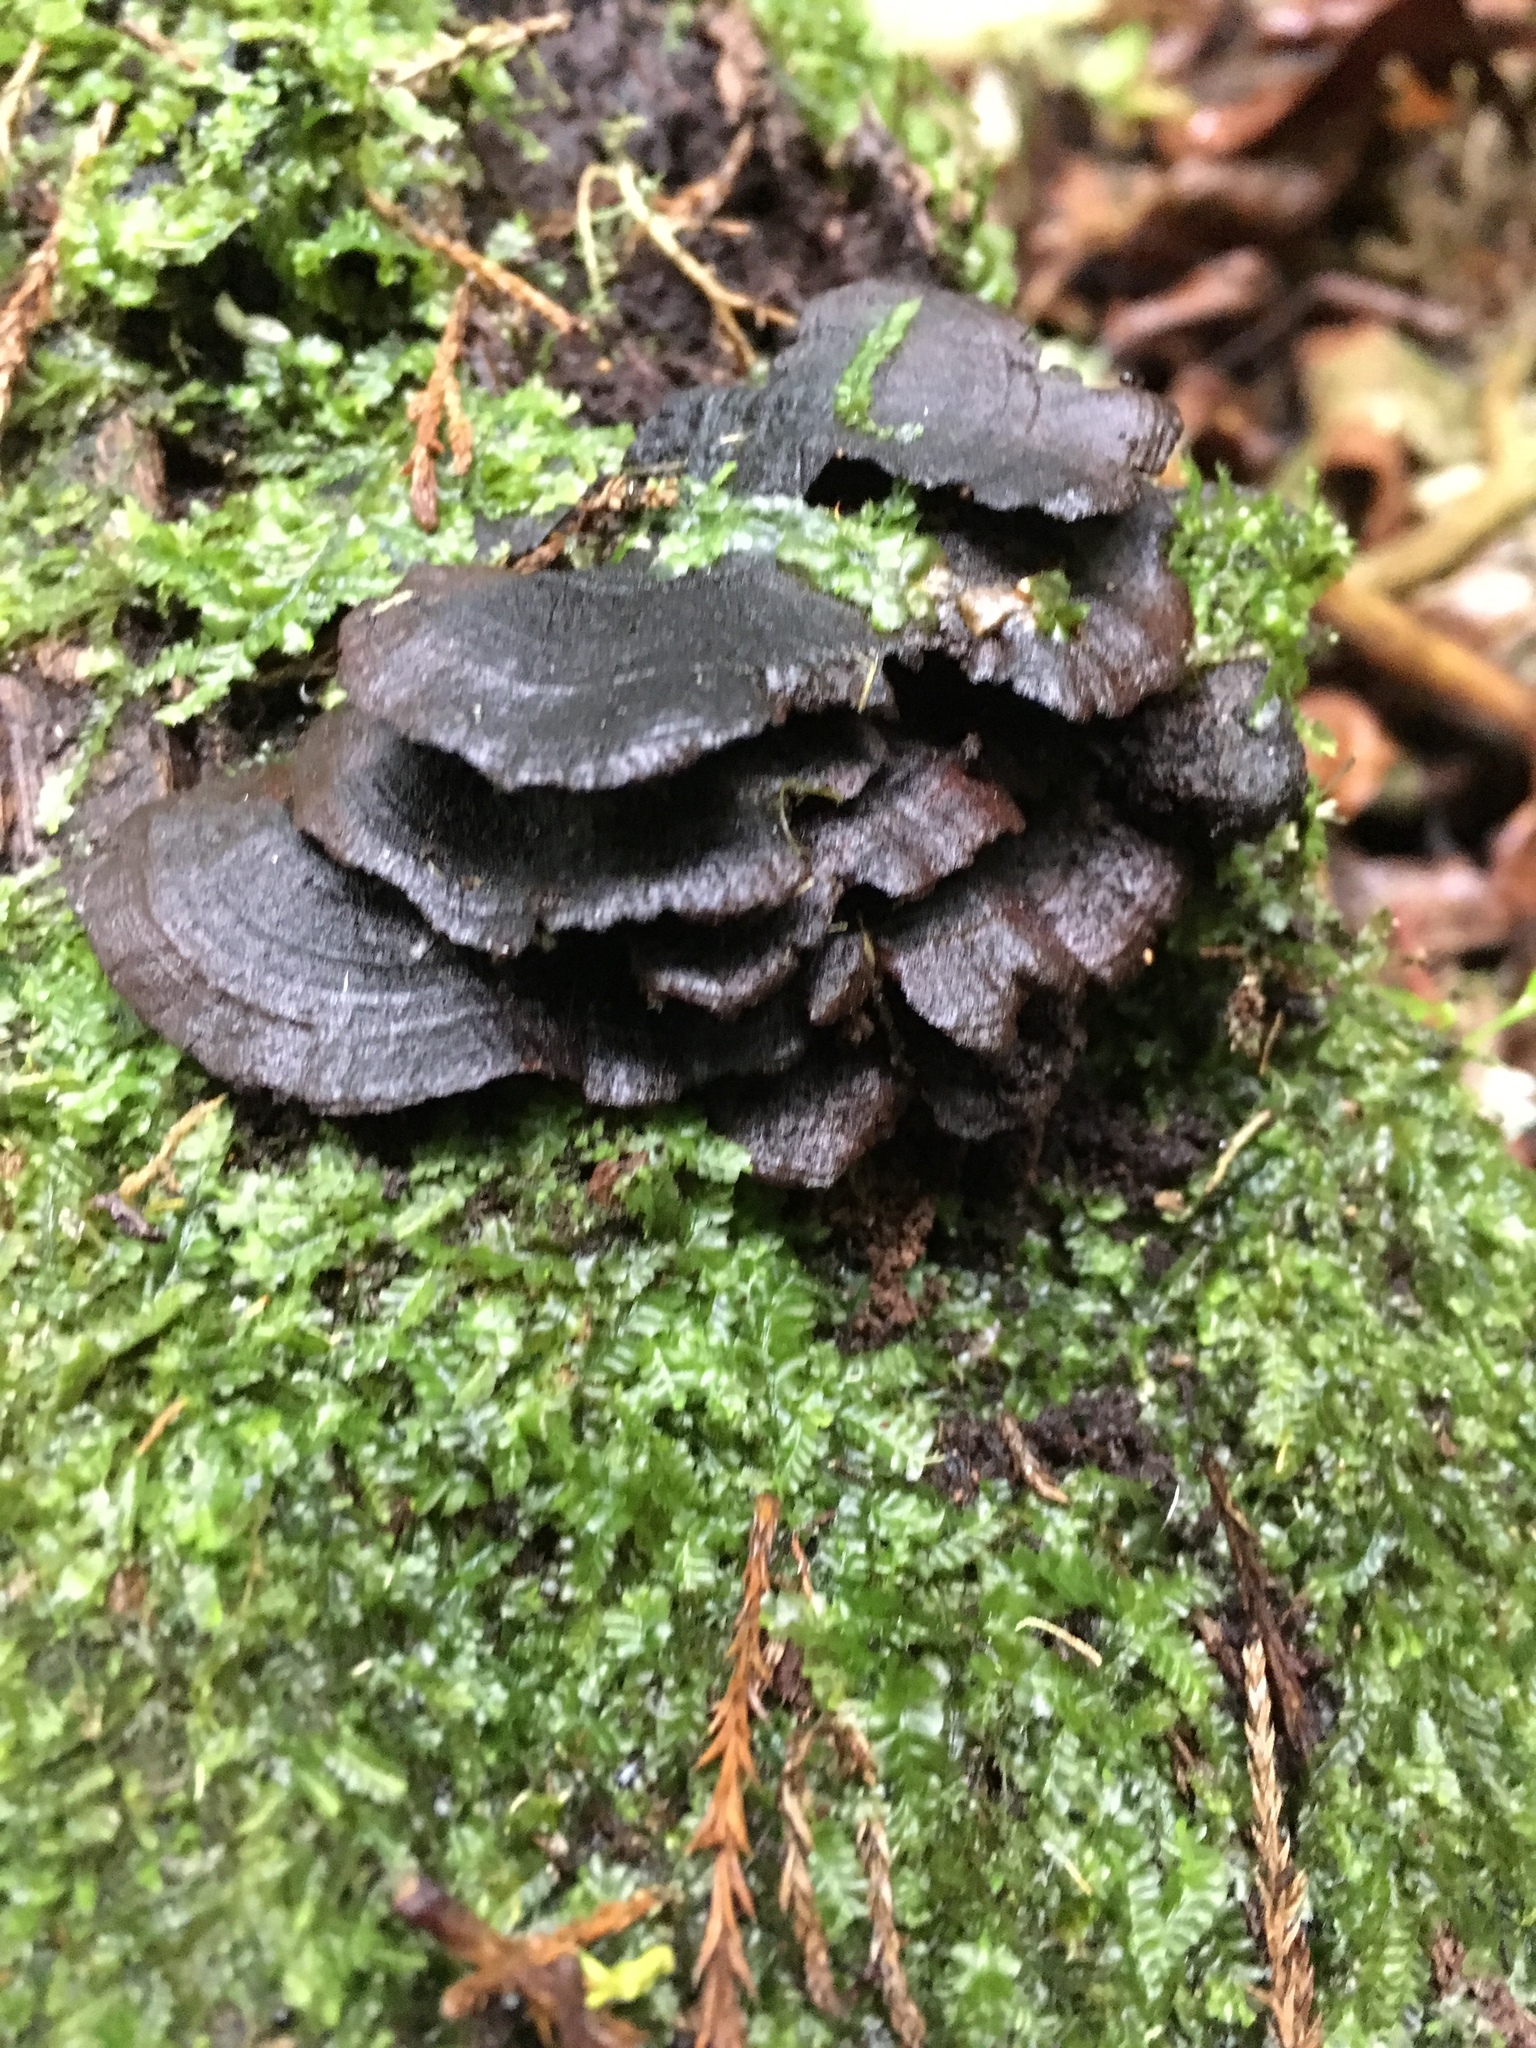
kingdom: Fungi
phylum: Basidiomycota
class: Agaricomycetes
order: Hymenochaetales
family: Hymenochaetaceae
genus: Hymenochaete
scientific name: Hymenochaete microcycla
